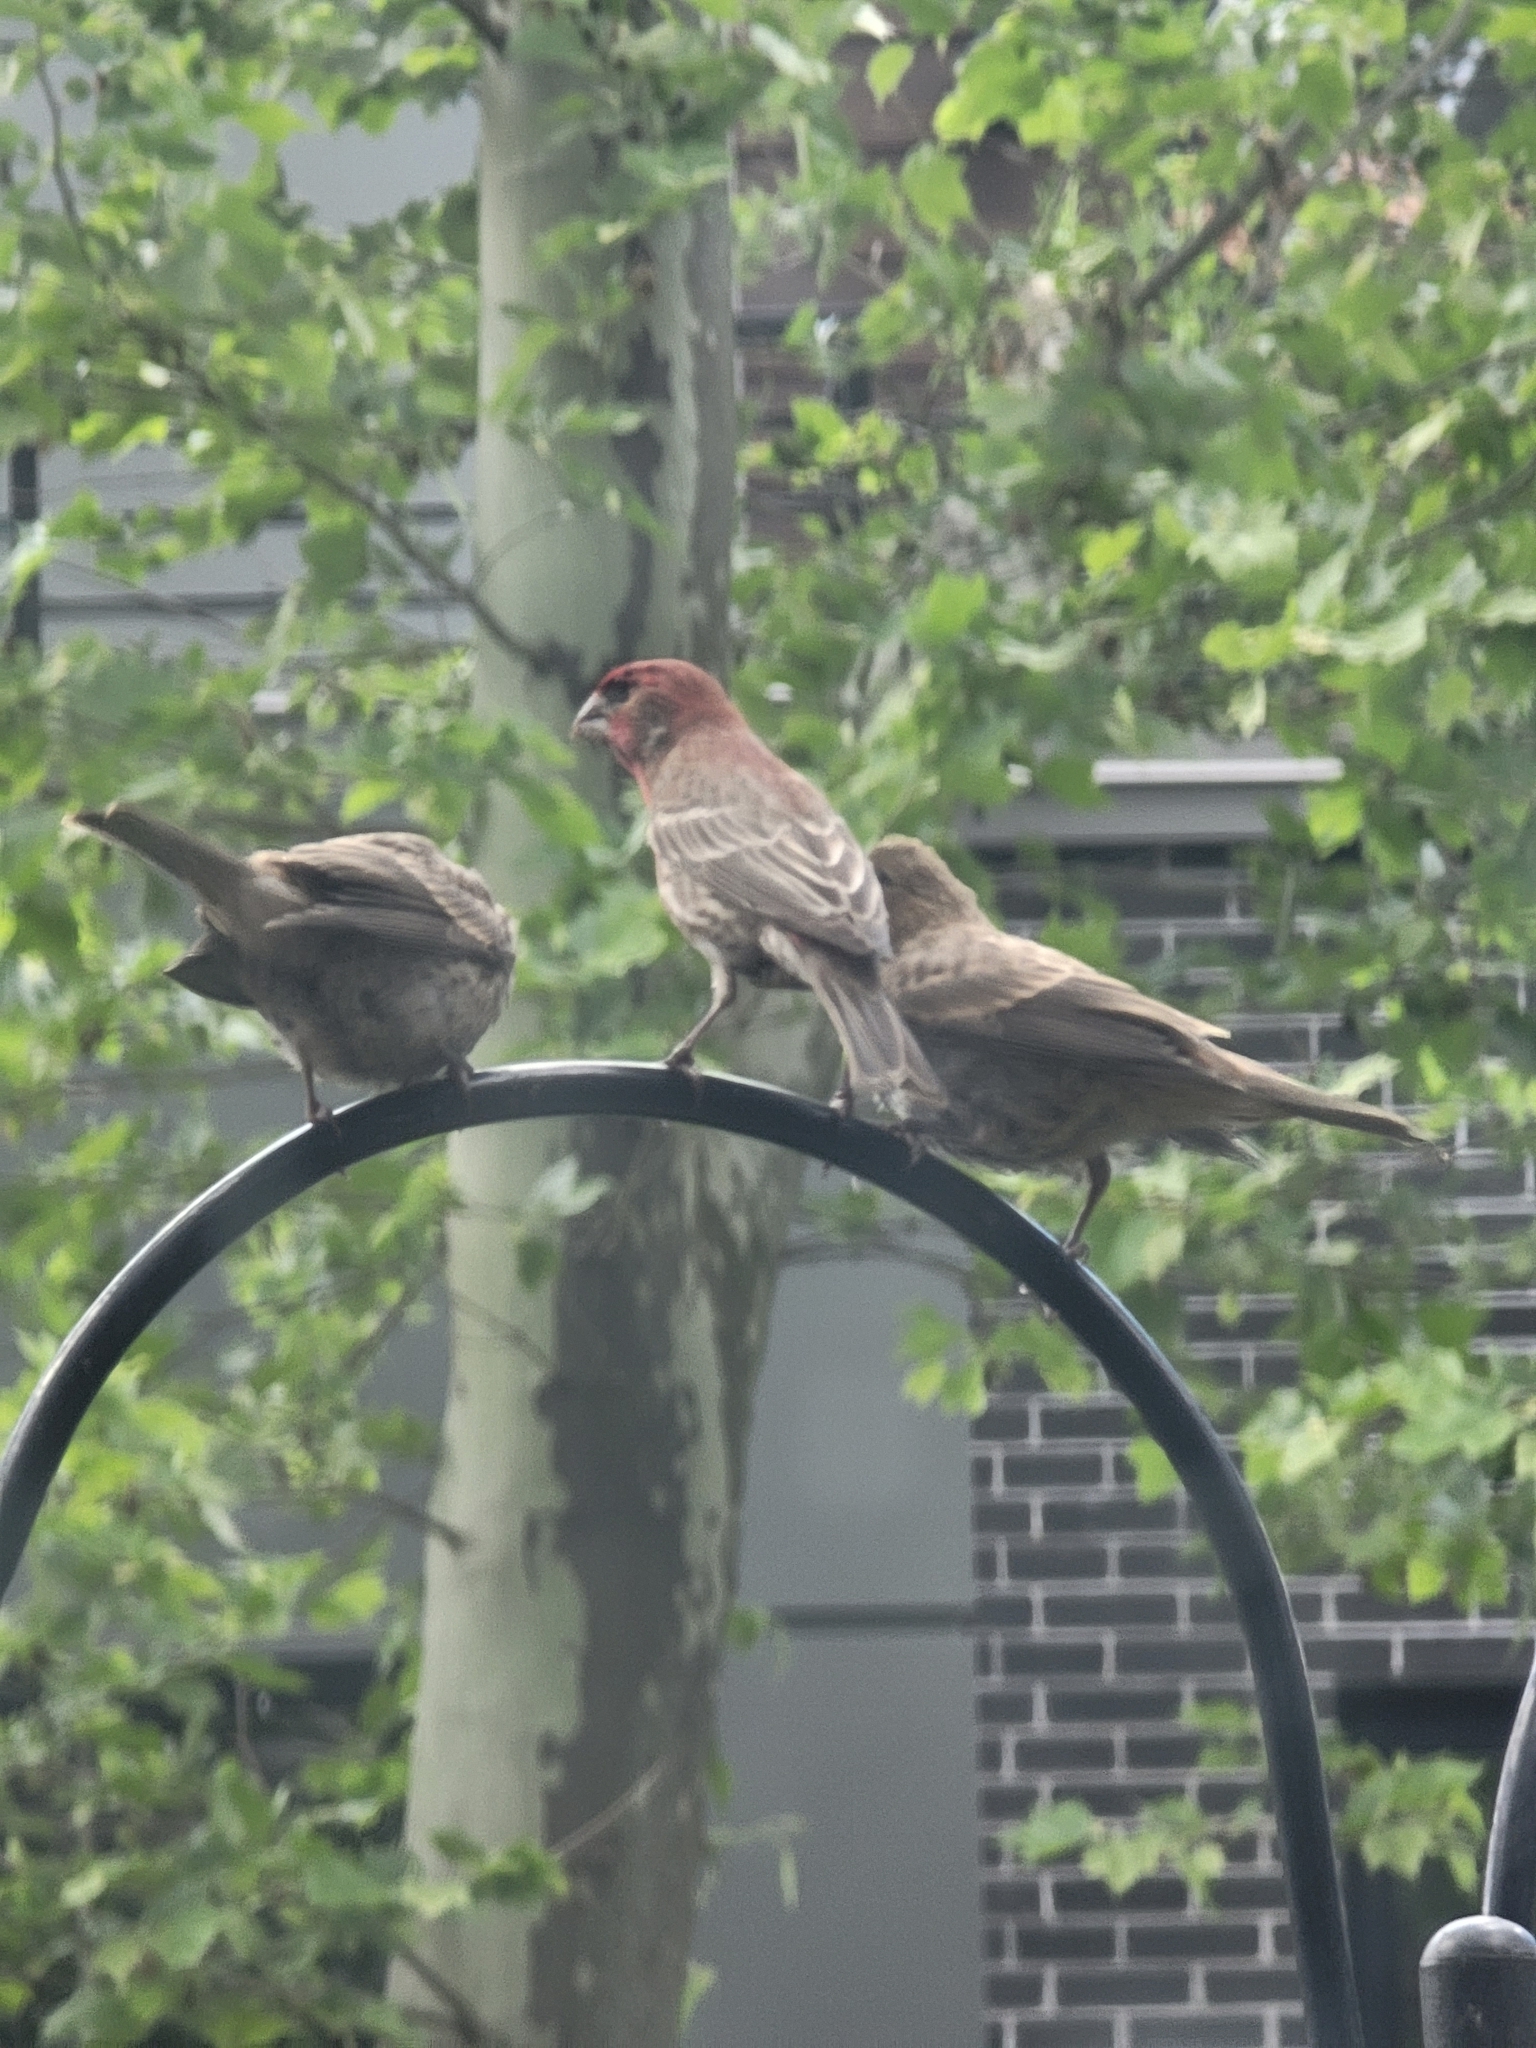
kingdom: Animalia
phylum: Chordata
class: Aves
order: Passeriformes
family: Fringillidae
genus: Haemorhous
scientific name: Haemorhous mexicanus
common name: House finch
